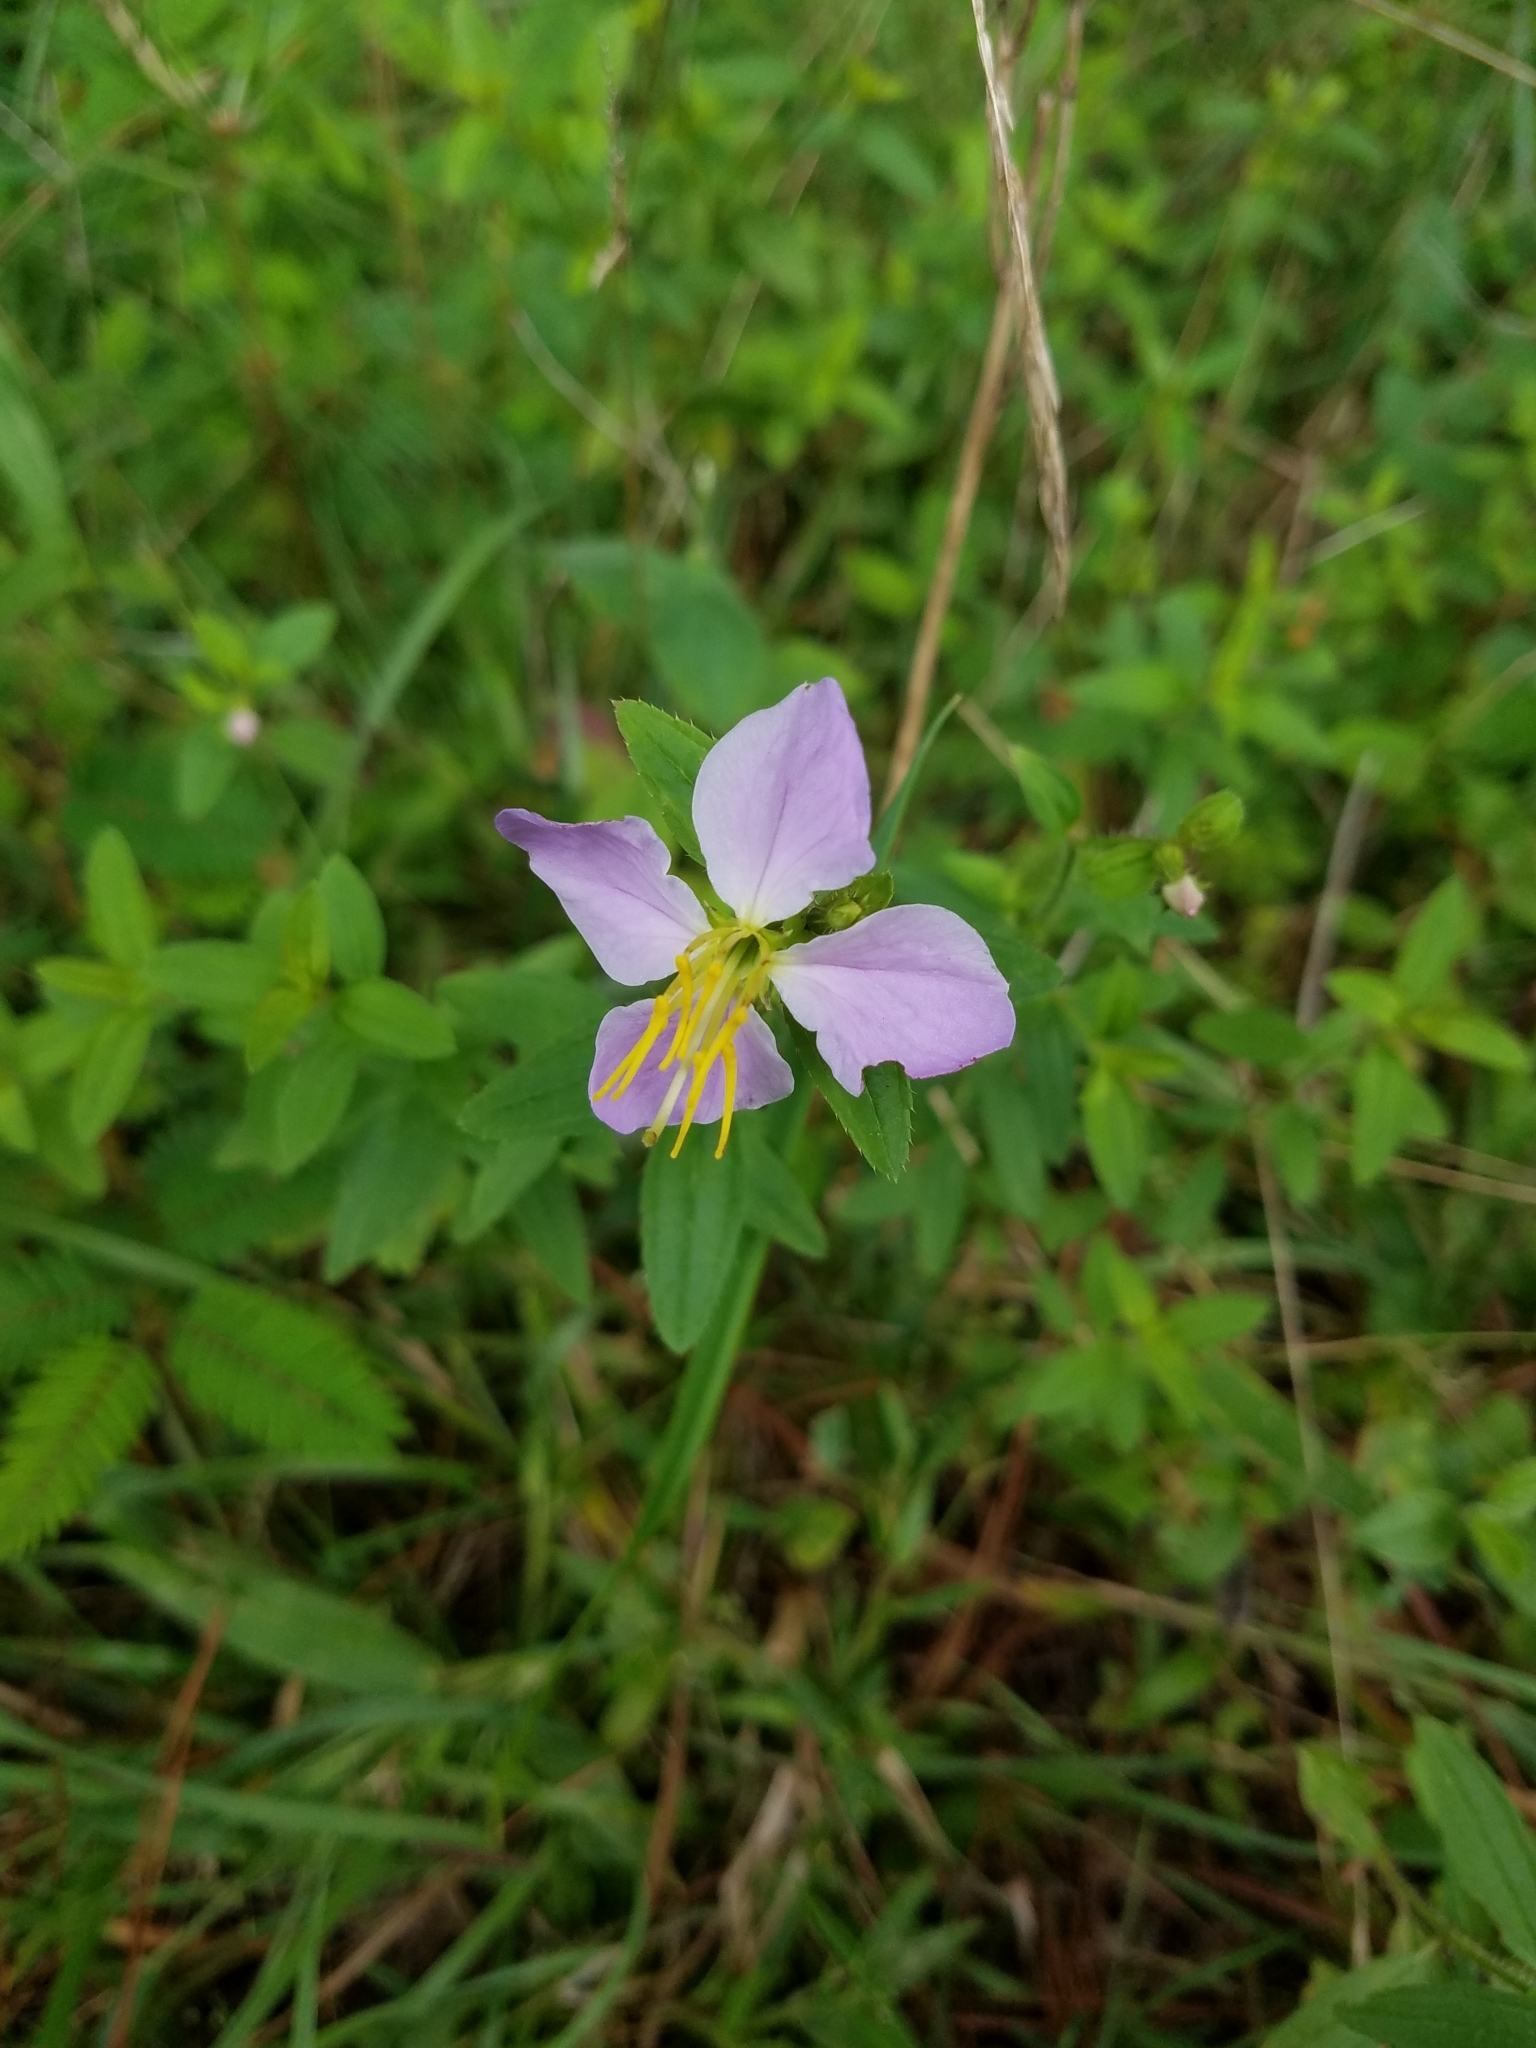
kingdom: Plantae
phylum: Tracheophyta
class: Magnoliopsida
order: Myrtales
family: Melastomataceae
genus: Rhexia
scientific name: Rhexia mariana
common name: Dull meadow-pitcher
